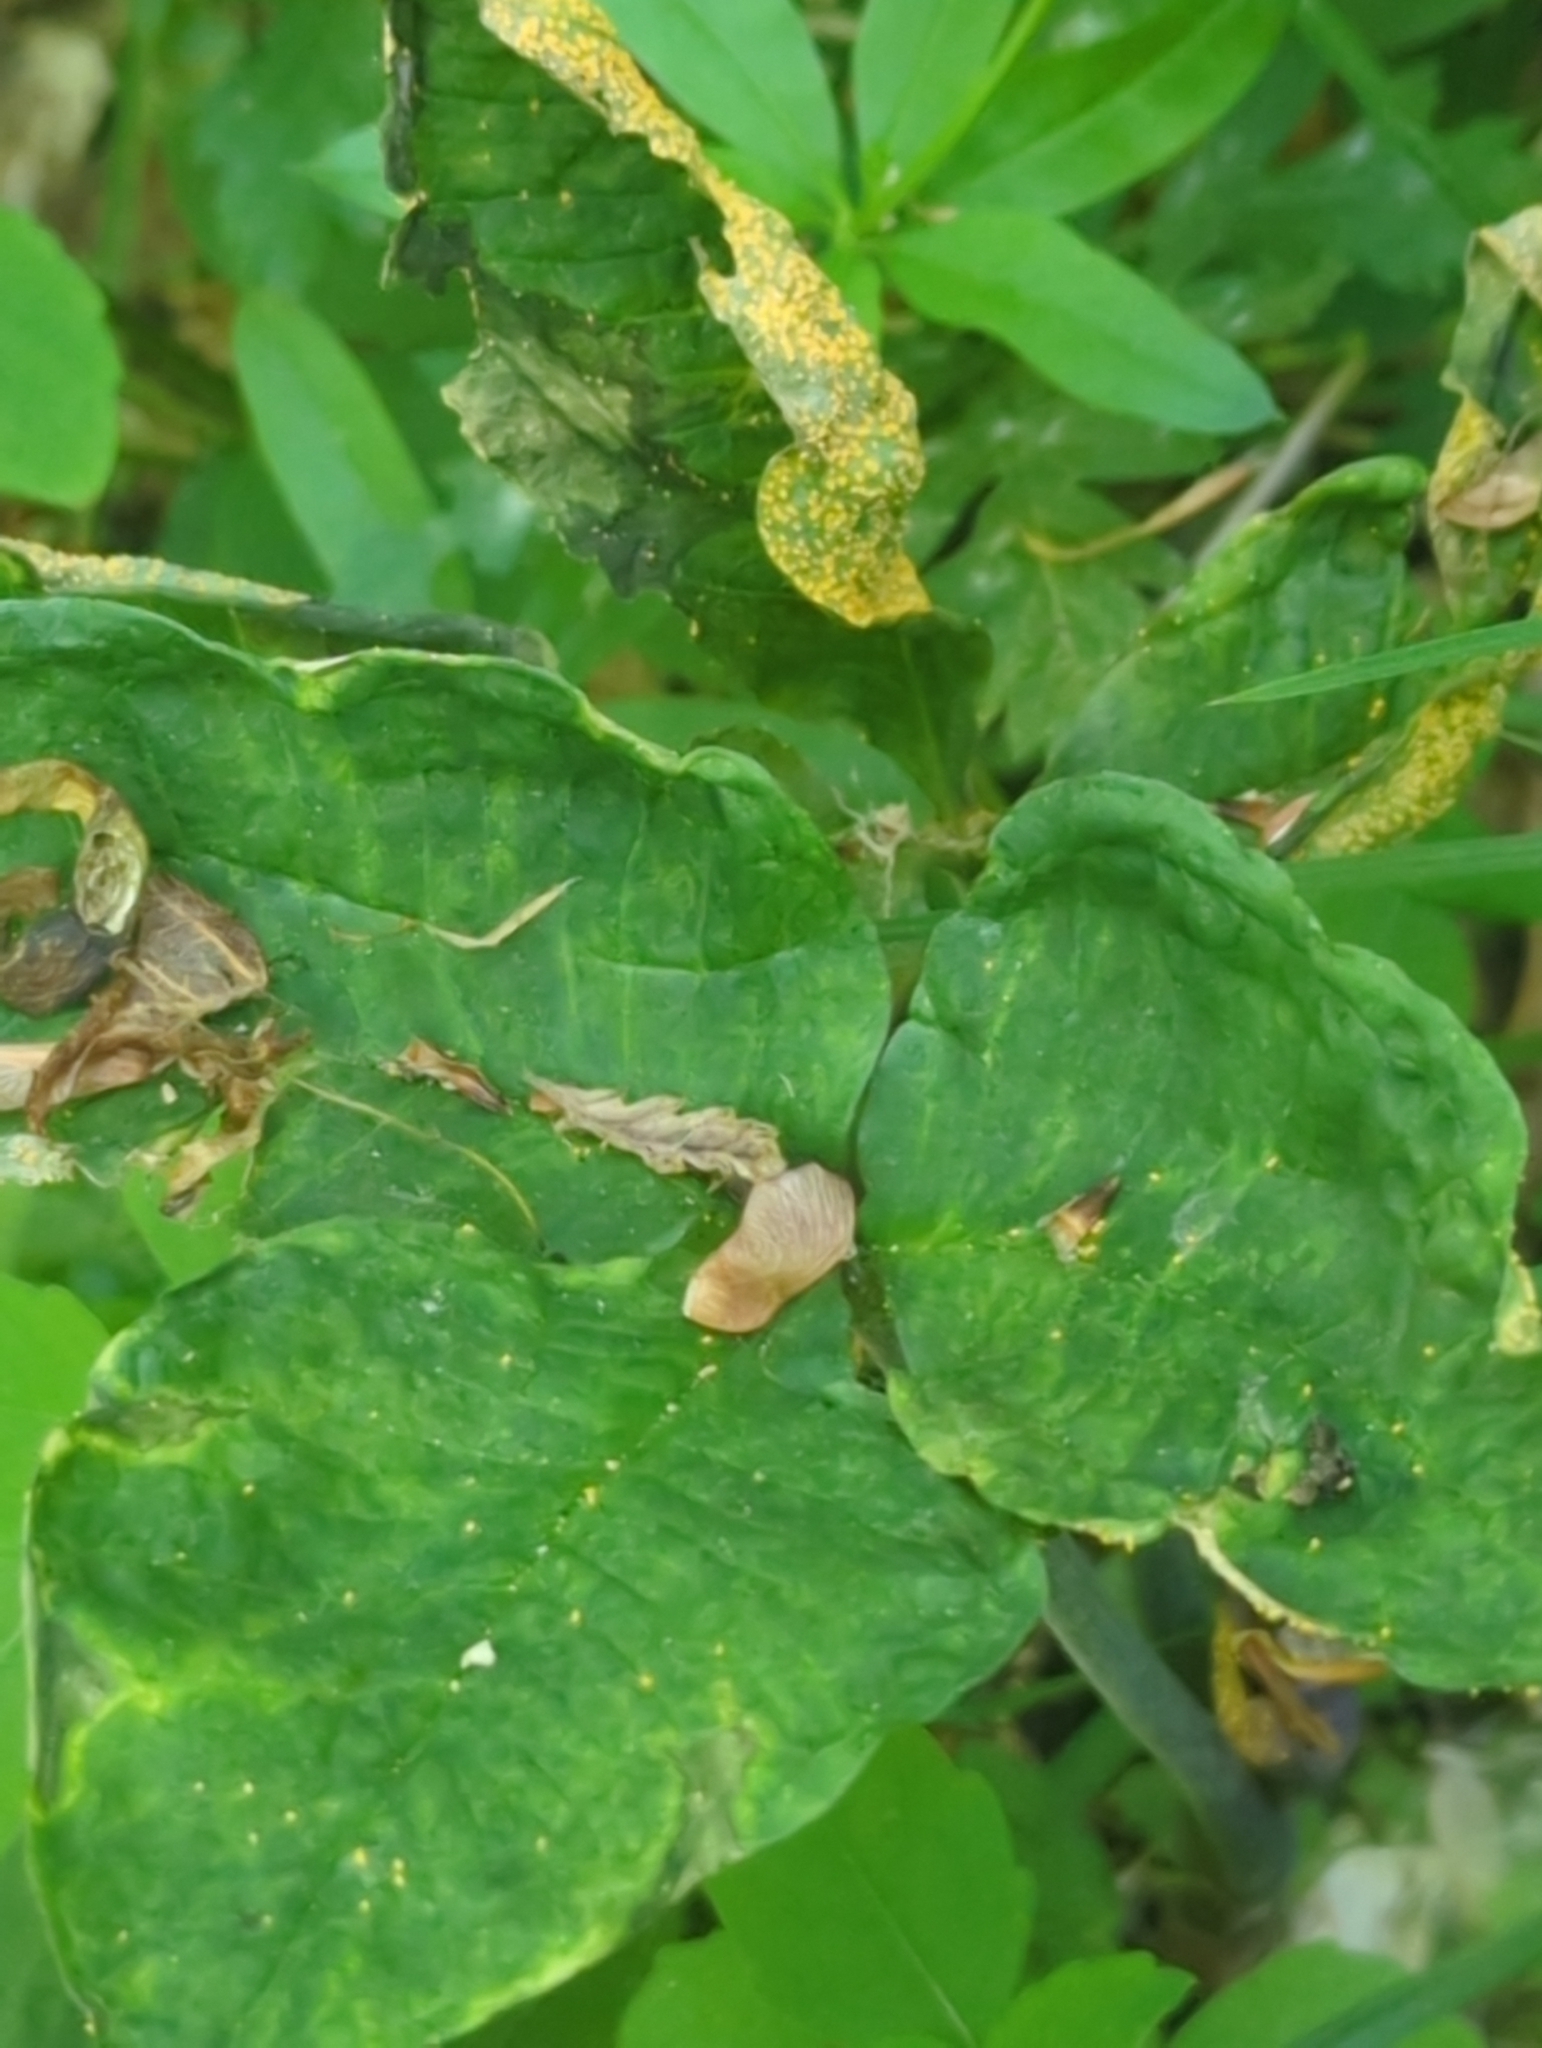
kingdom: Fungi
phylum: Basidiomycota
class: Pucciniomycetes
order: Pucciniales
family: Pucciniaceae
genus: Uromyces
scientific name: Uromyces ari-triphylli
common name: Jack-in-the-pulpit rust
